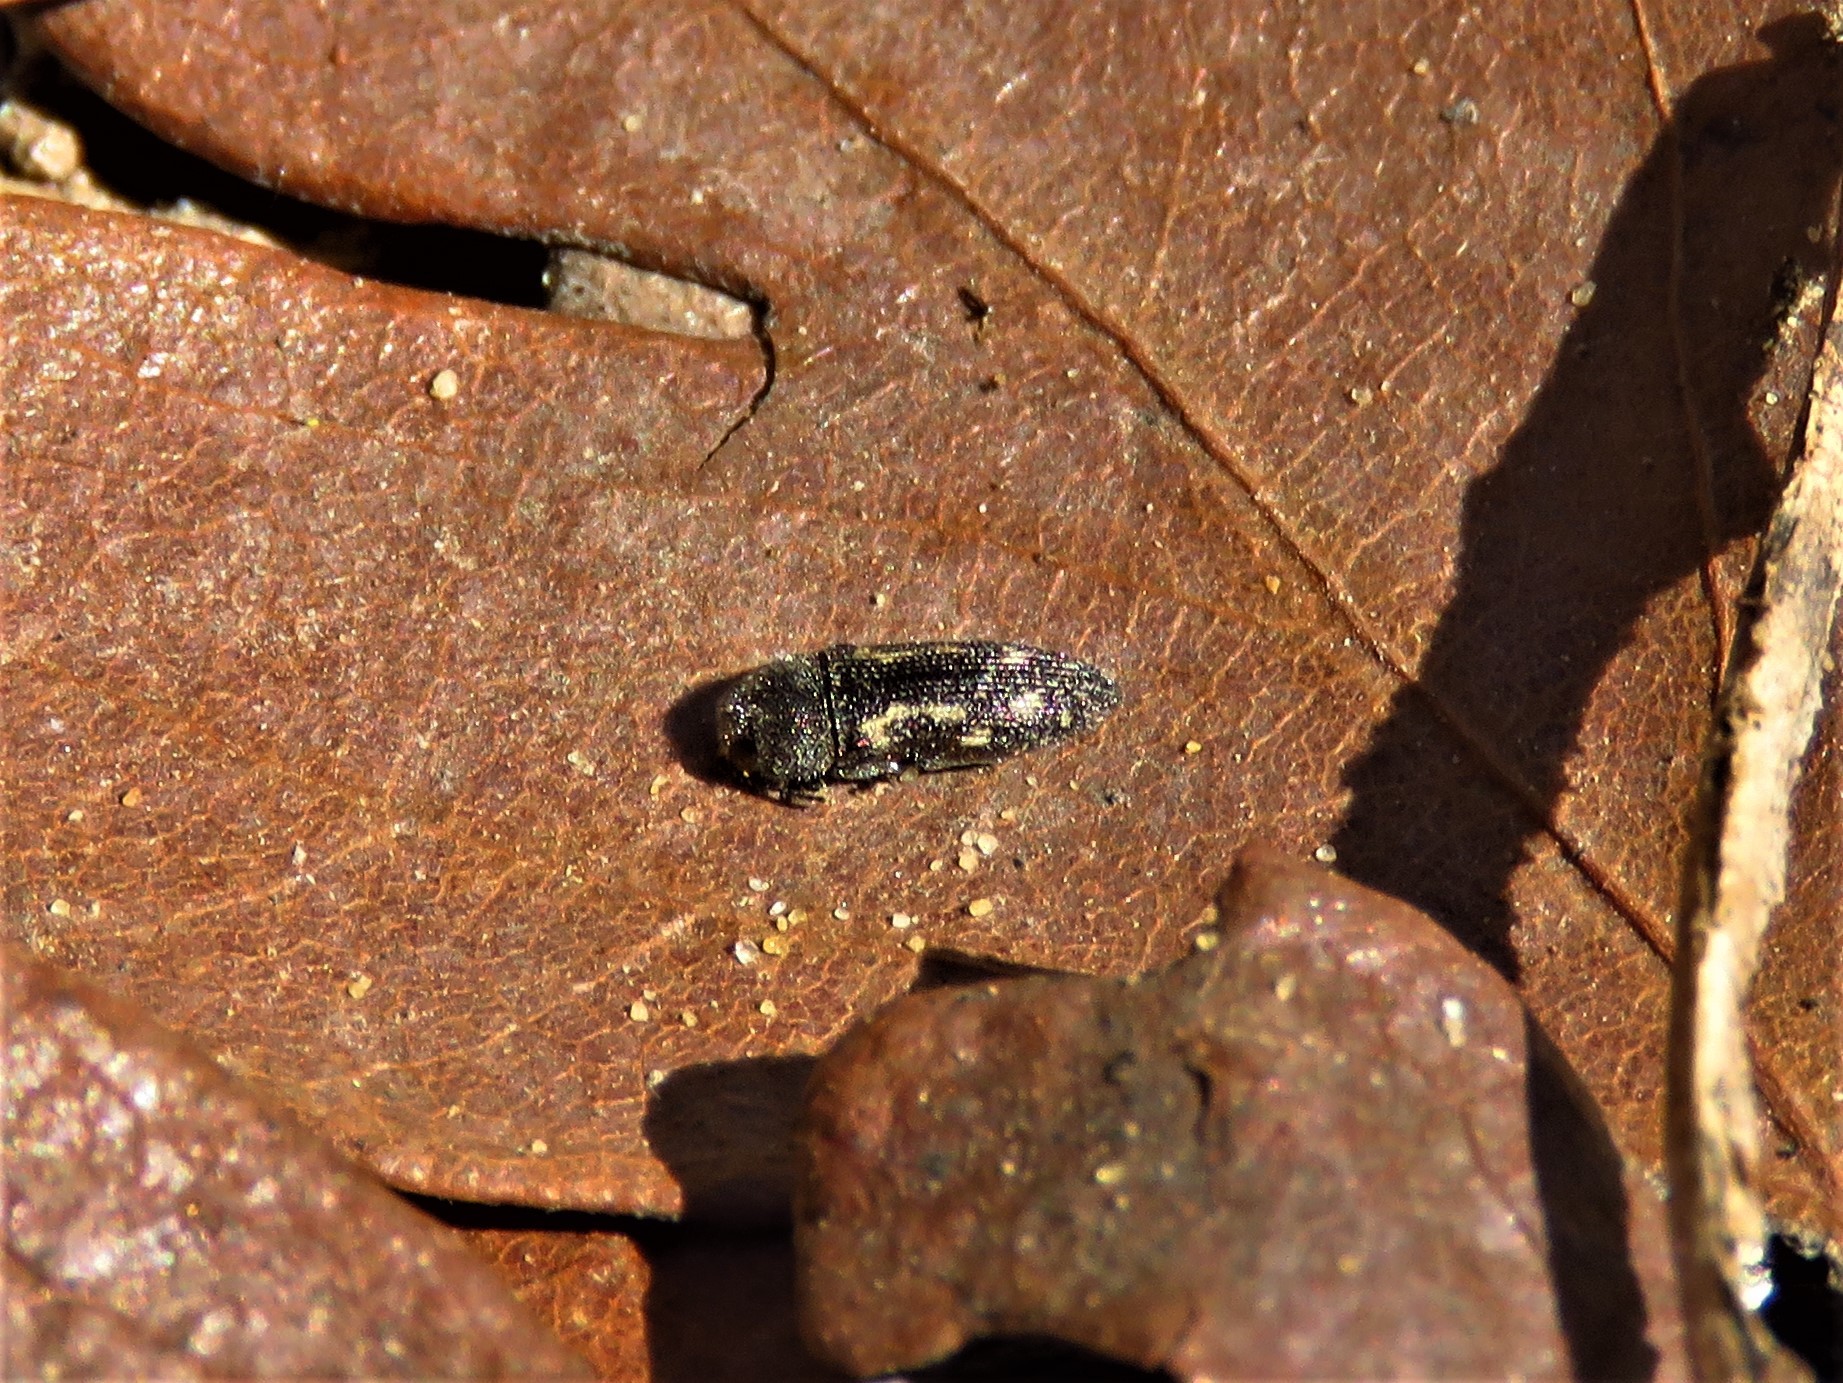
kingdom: Animalia
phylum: Arthropoda
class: Insecta
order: Coleoptera
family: Buprestidae
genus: Acmaeodera
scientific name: Acmaeodera neglecta
